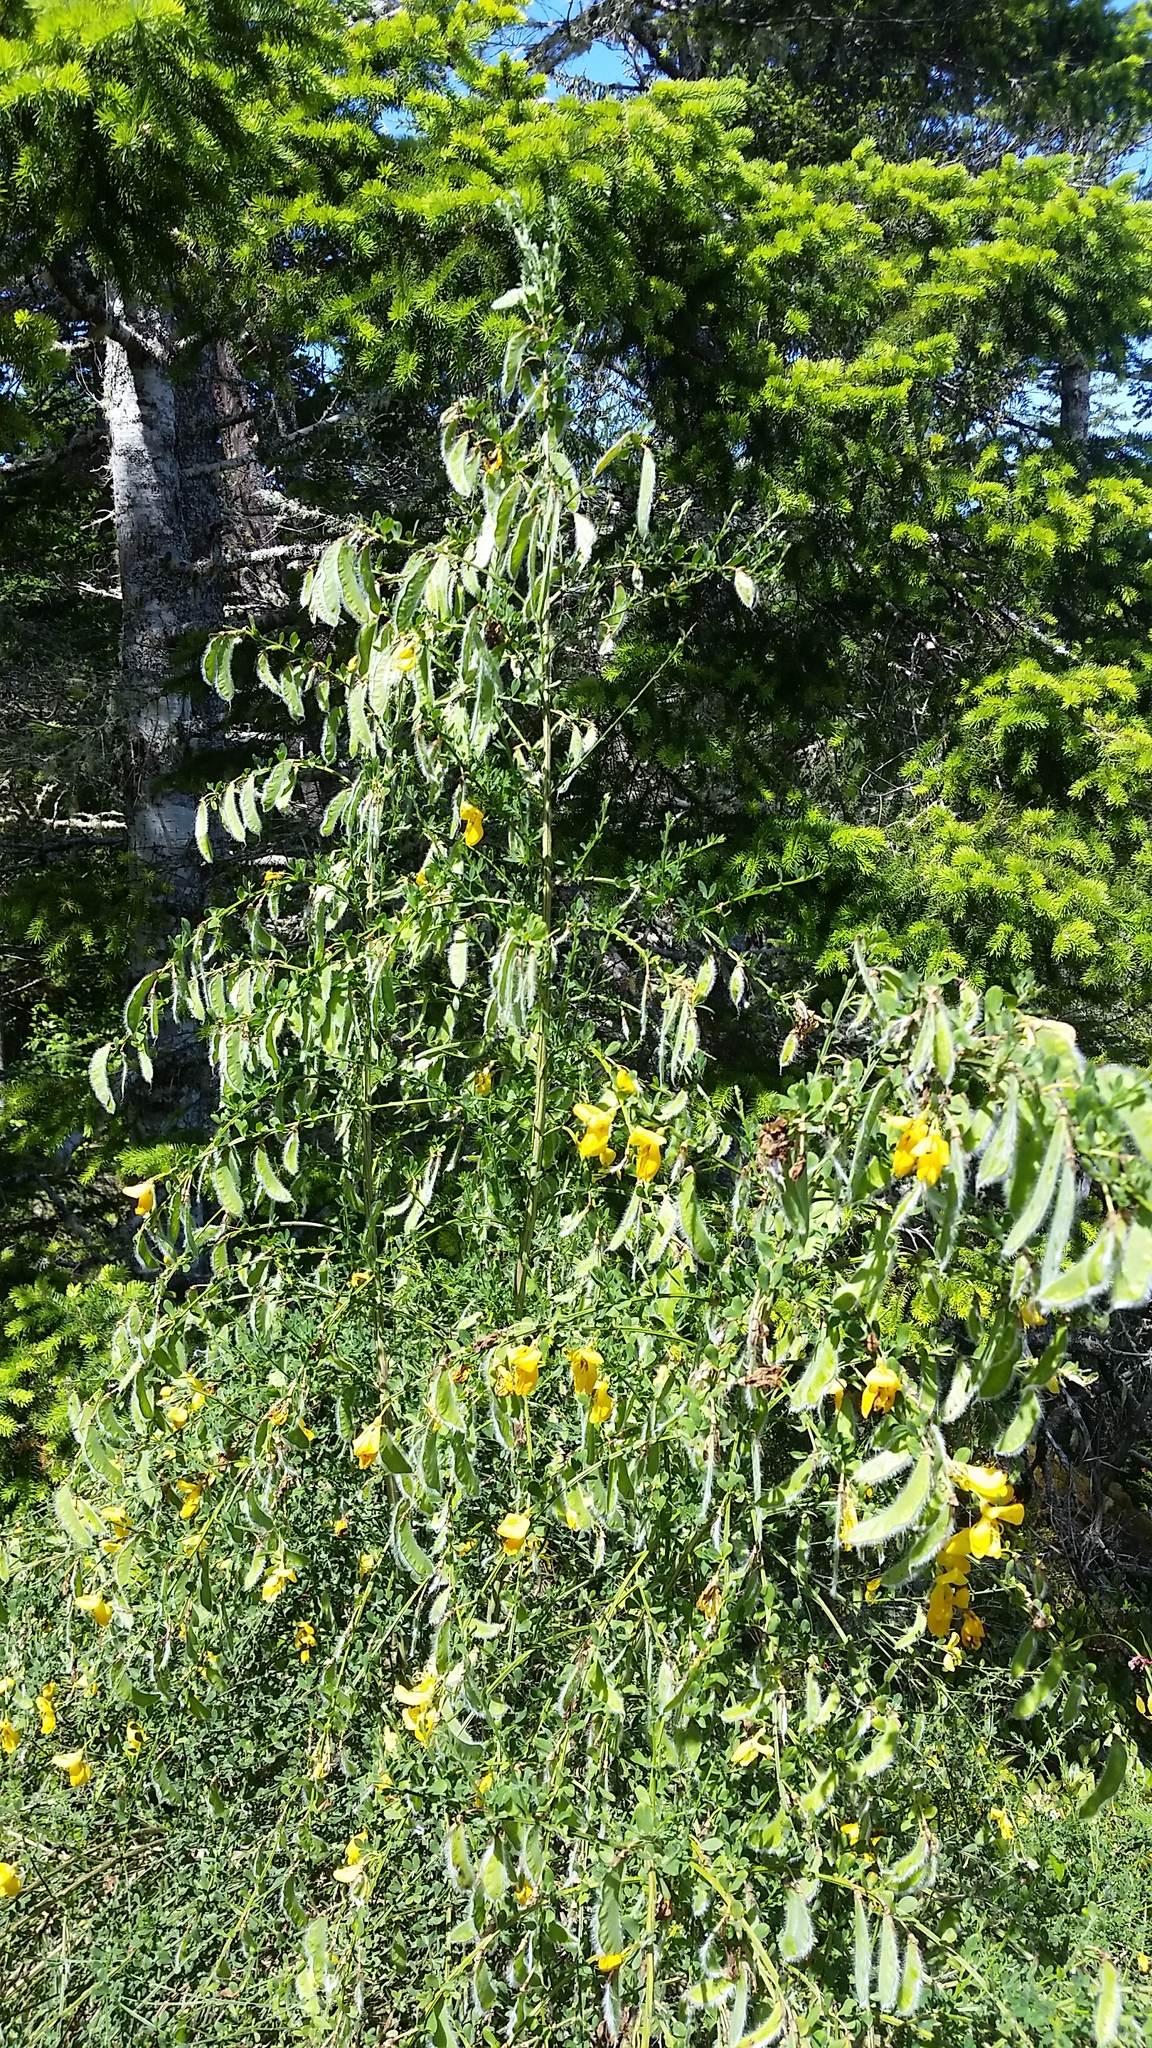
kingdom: Plantae
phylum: Tracheophyta
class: Magnoliopsida
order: Fabales
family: Fabaceae
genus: Cytisus
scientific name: Cytisus scoparius
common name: Scotch broom
